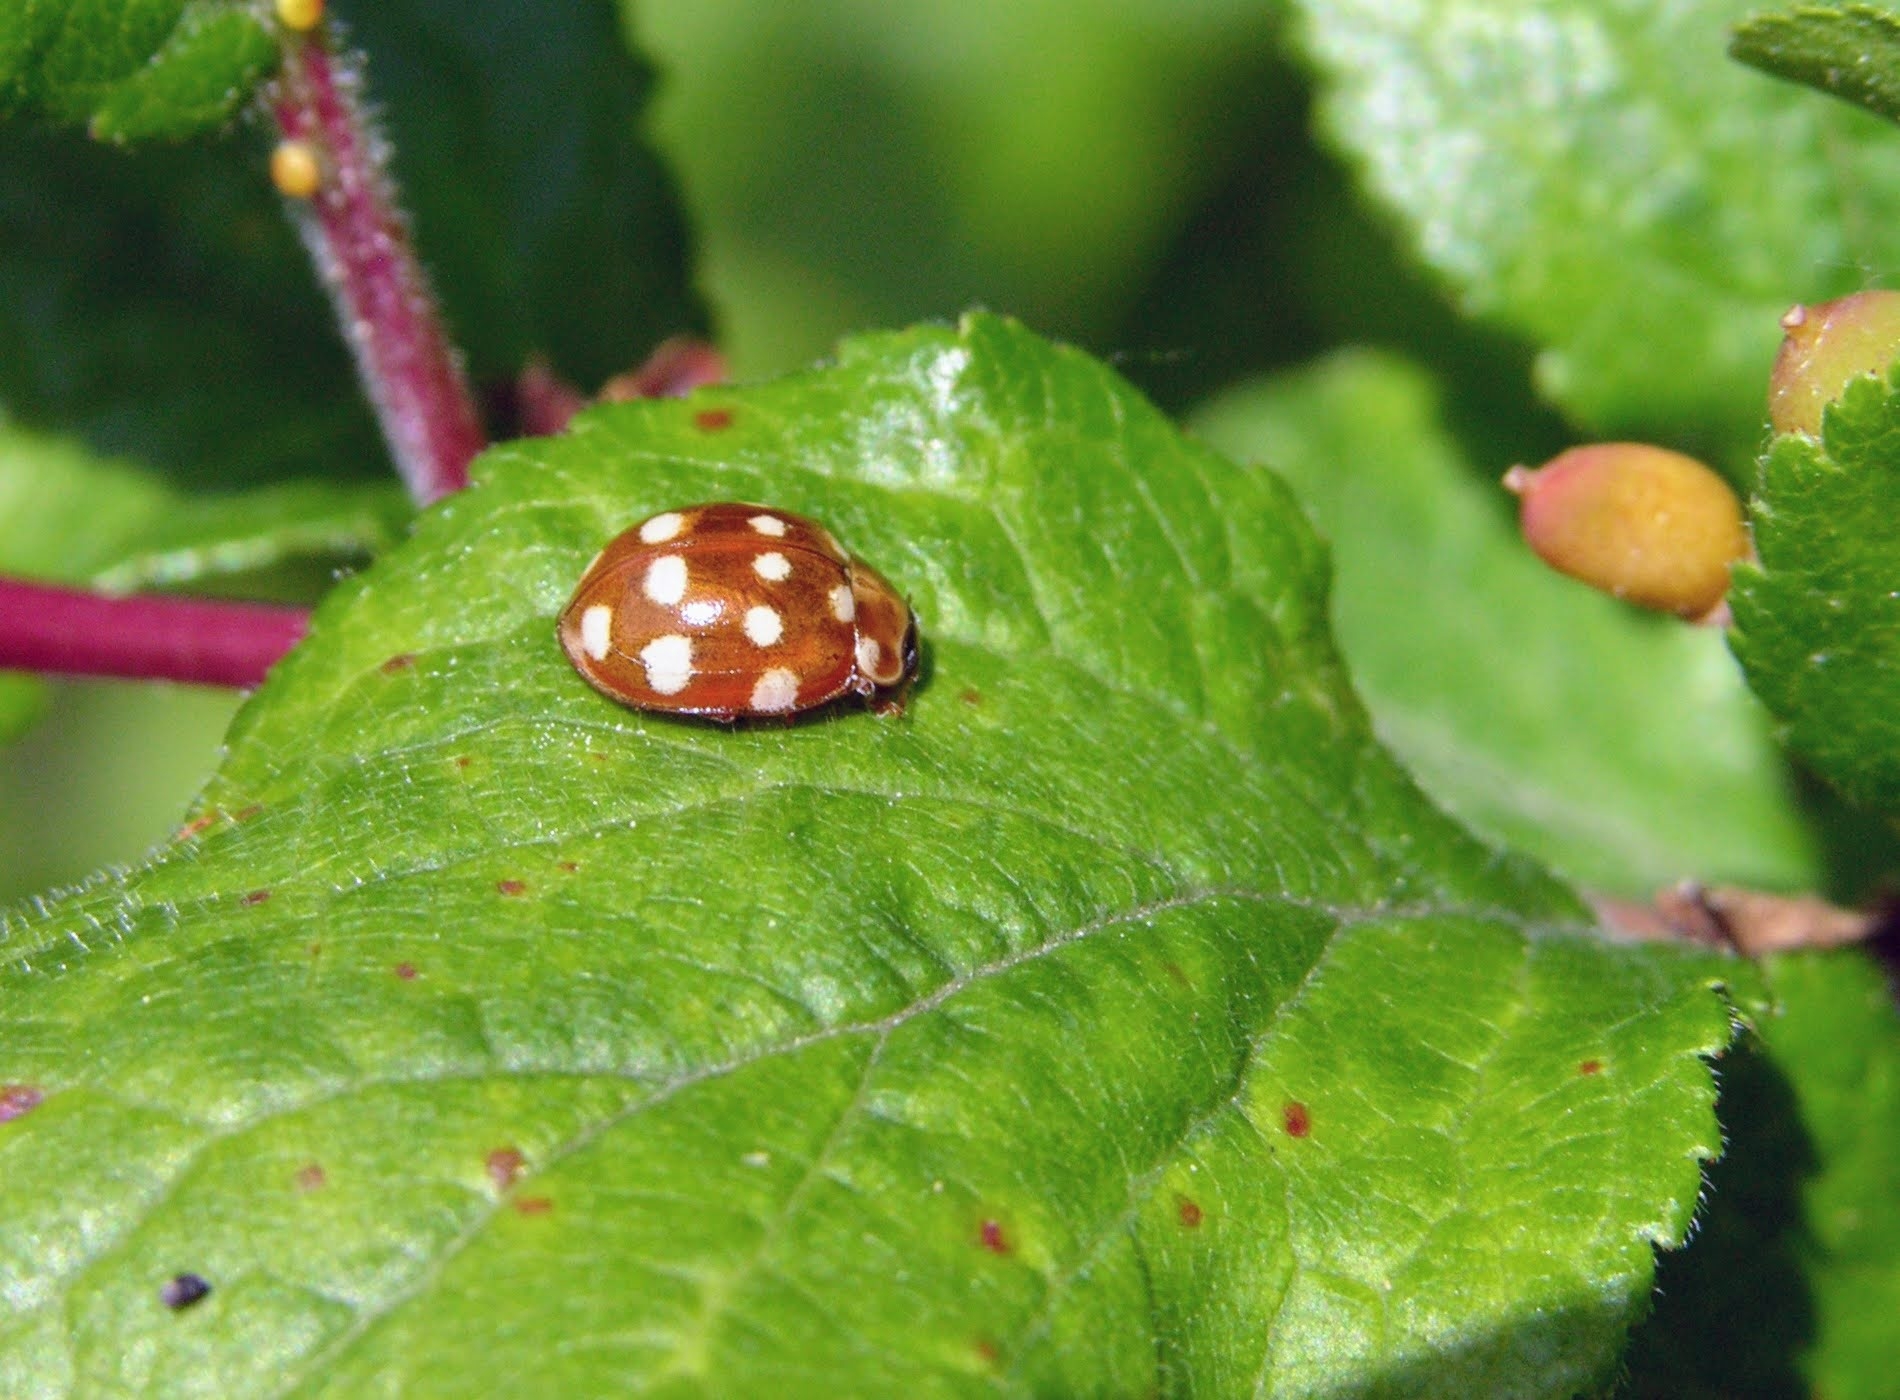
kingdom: Animalia
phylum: Arthropoda
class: Insecta
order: Coleoptera
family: Coccinellidae
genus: Calvia
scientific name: Calvia quatuordecimguttata
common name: Cream-spot ladybird
